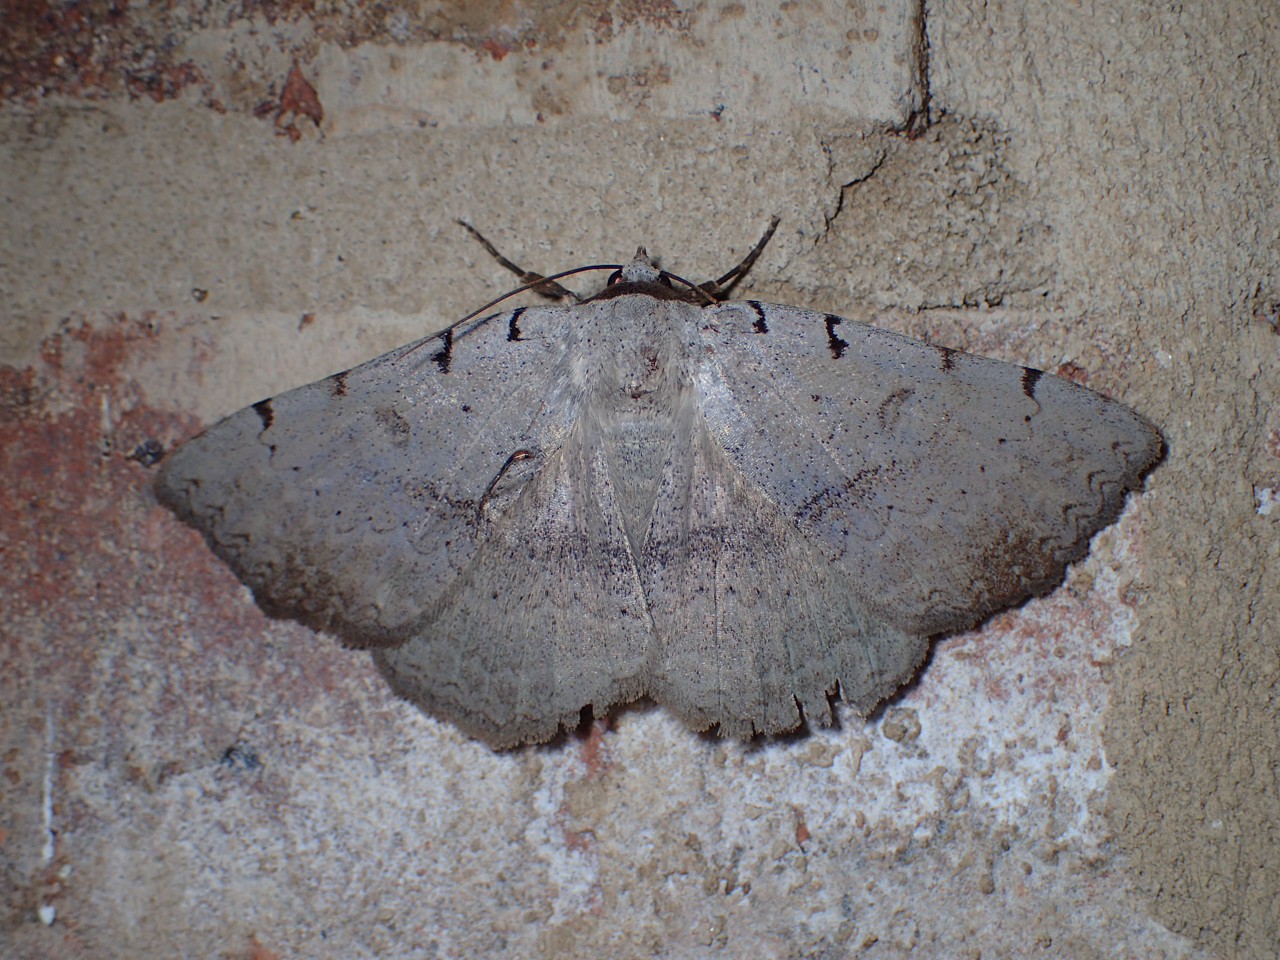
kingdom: Animalia
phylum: Arthropoda
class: Insecta
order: Lepidoptera
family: Erebidae
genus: Spiloloma
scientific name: Spiloloma lunilinea
